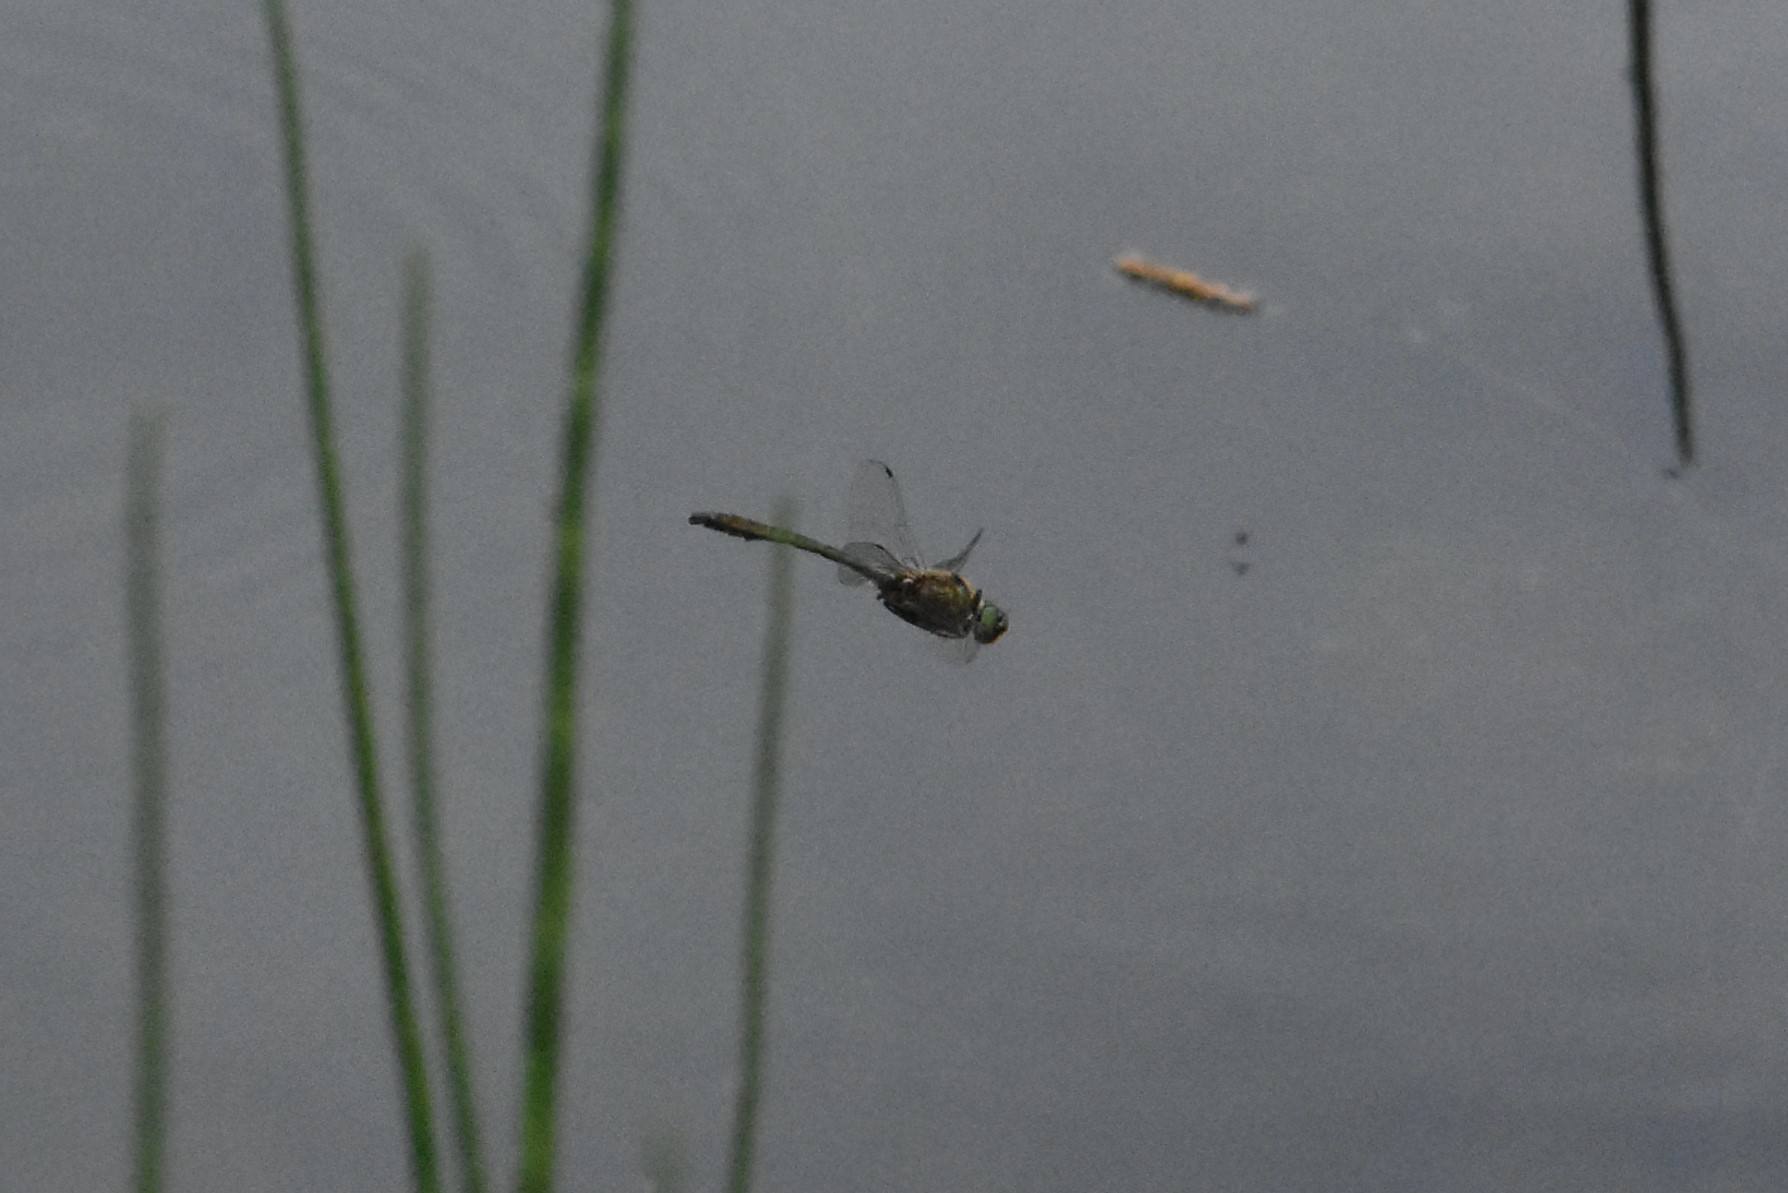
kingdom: Animalia
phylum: Arthropoda
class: Insecta
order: Odonata
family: Corduliidae
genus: Cordulia
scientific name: Cordulia aenea
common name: Downy emerald
